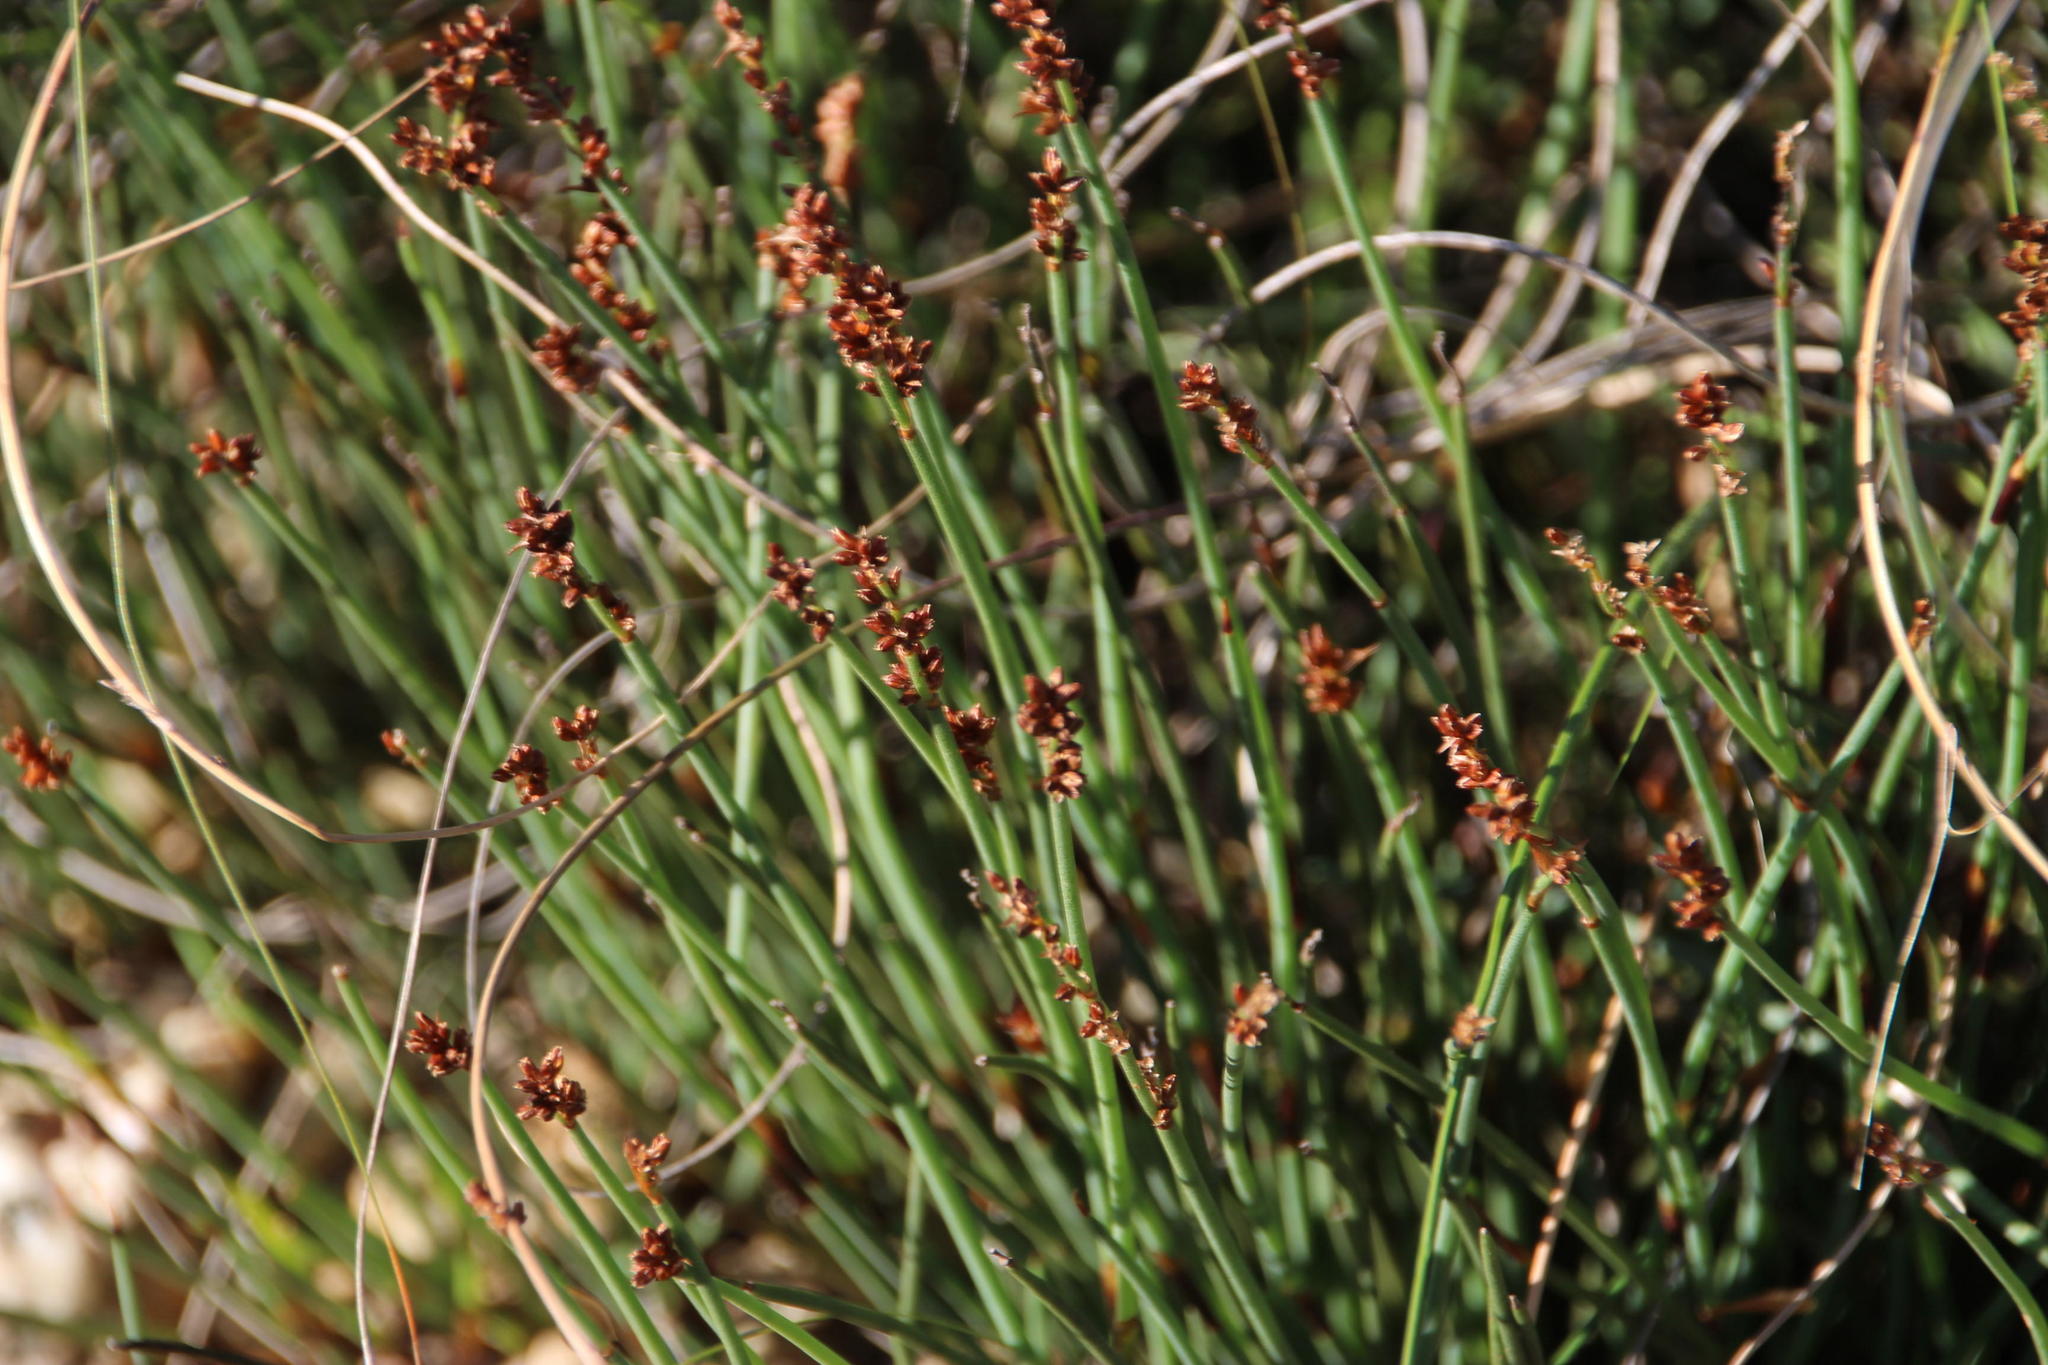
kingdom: Plantae
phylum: Tracheophyta
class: Liliopsida
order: Poales
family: Restionaceae
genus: Elegia
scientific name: Elegia squamosa
